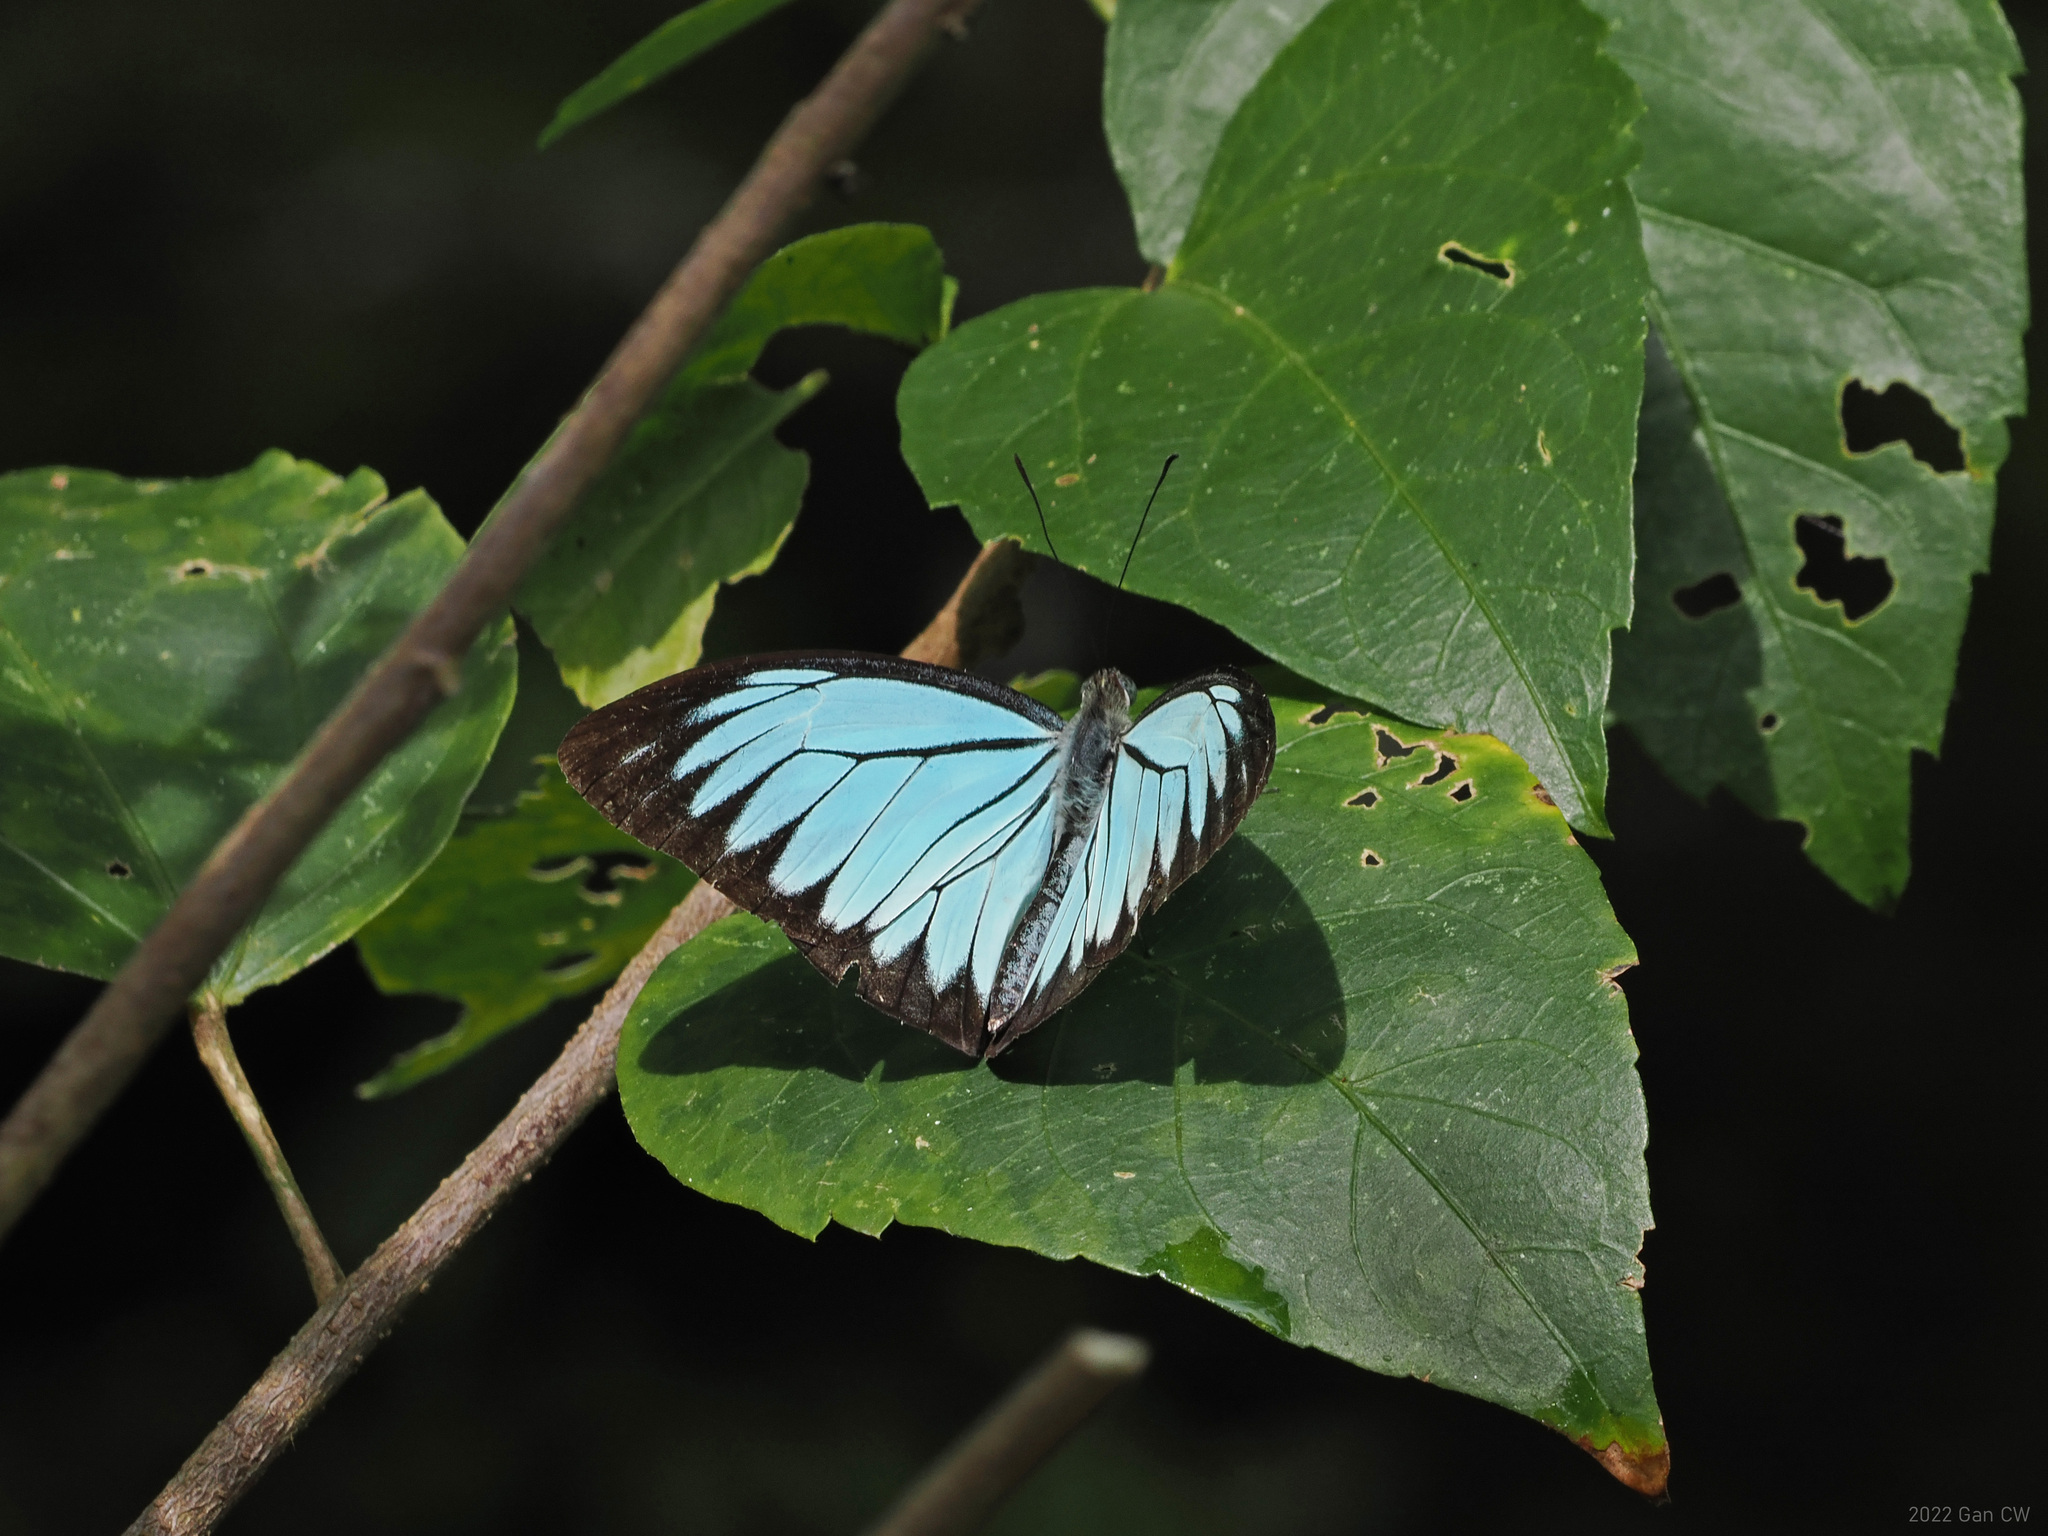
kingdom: Animalia
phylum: Arthropoda
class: Insecta
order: Lepidoptera
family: Pieridae
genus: Pareronia
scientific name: Pareronia valeria
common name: Common wanderer?
